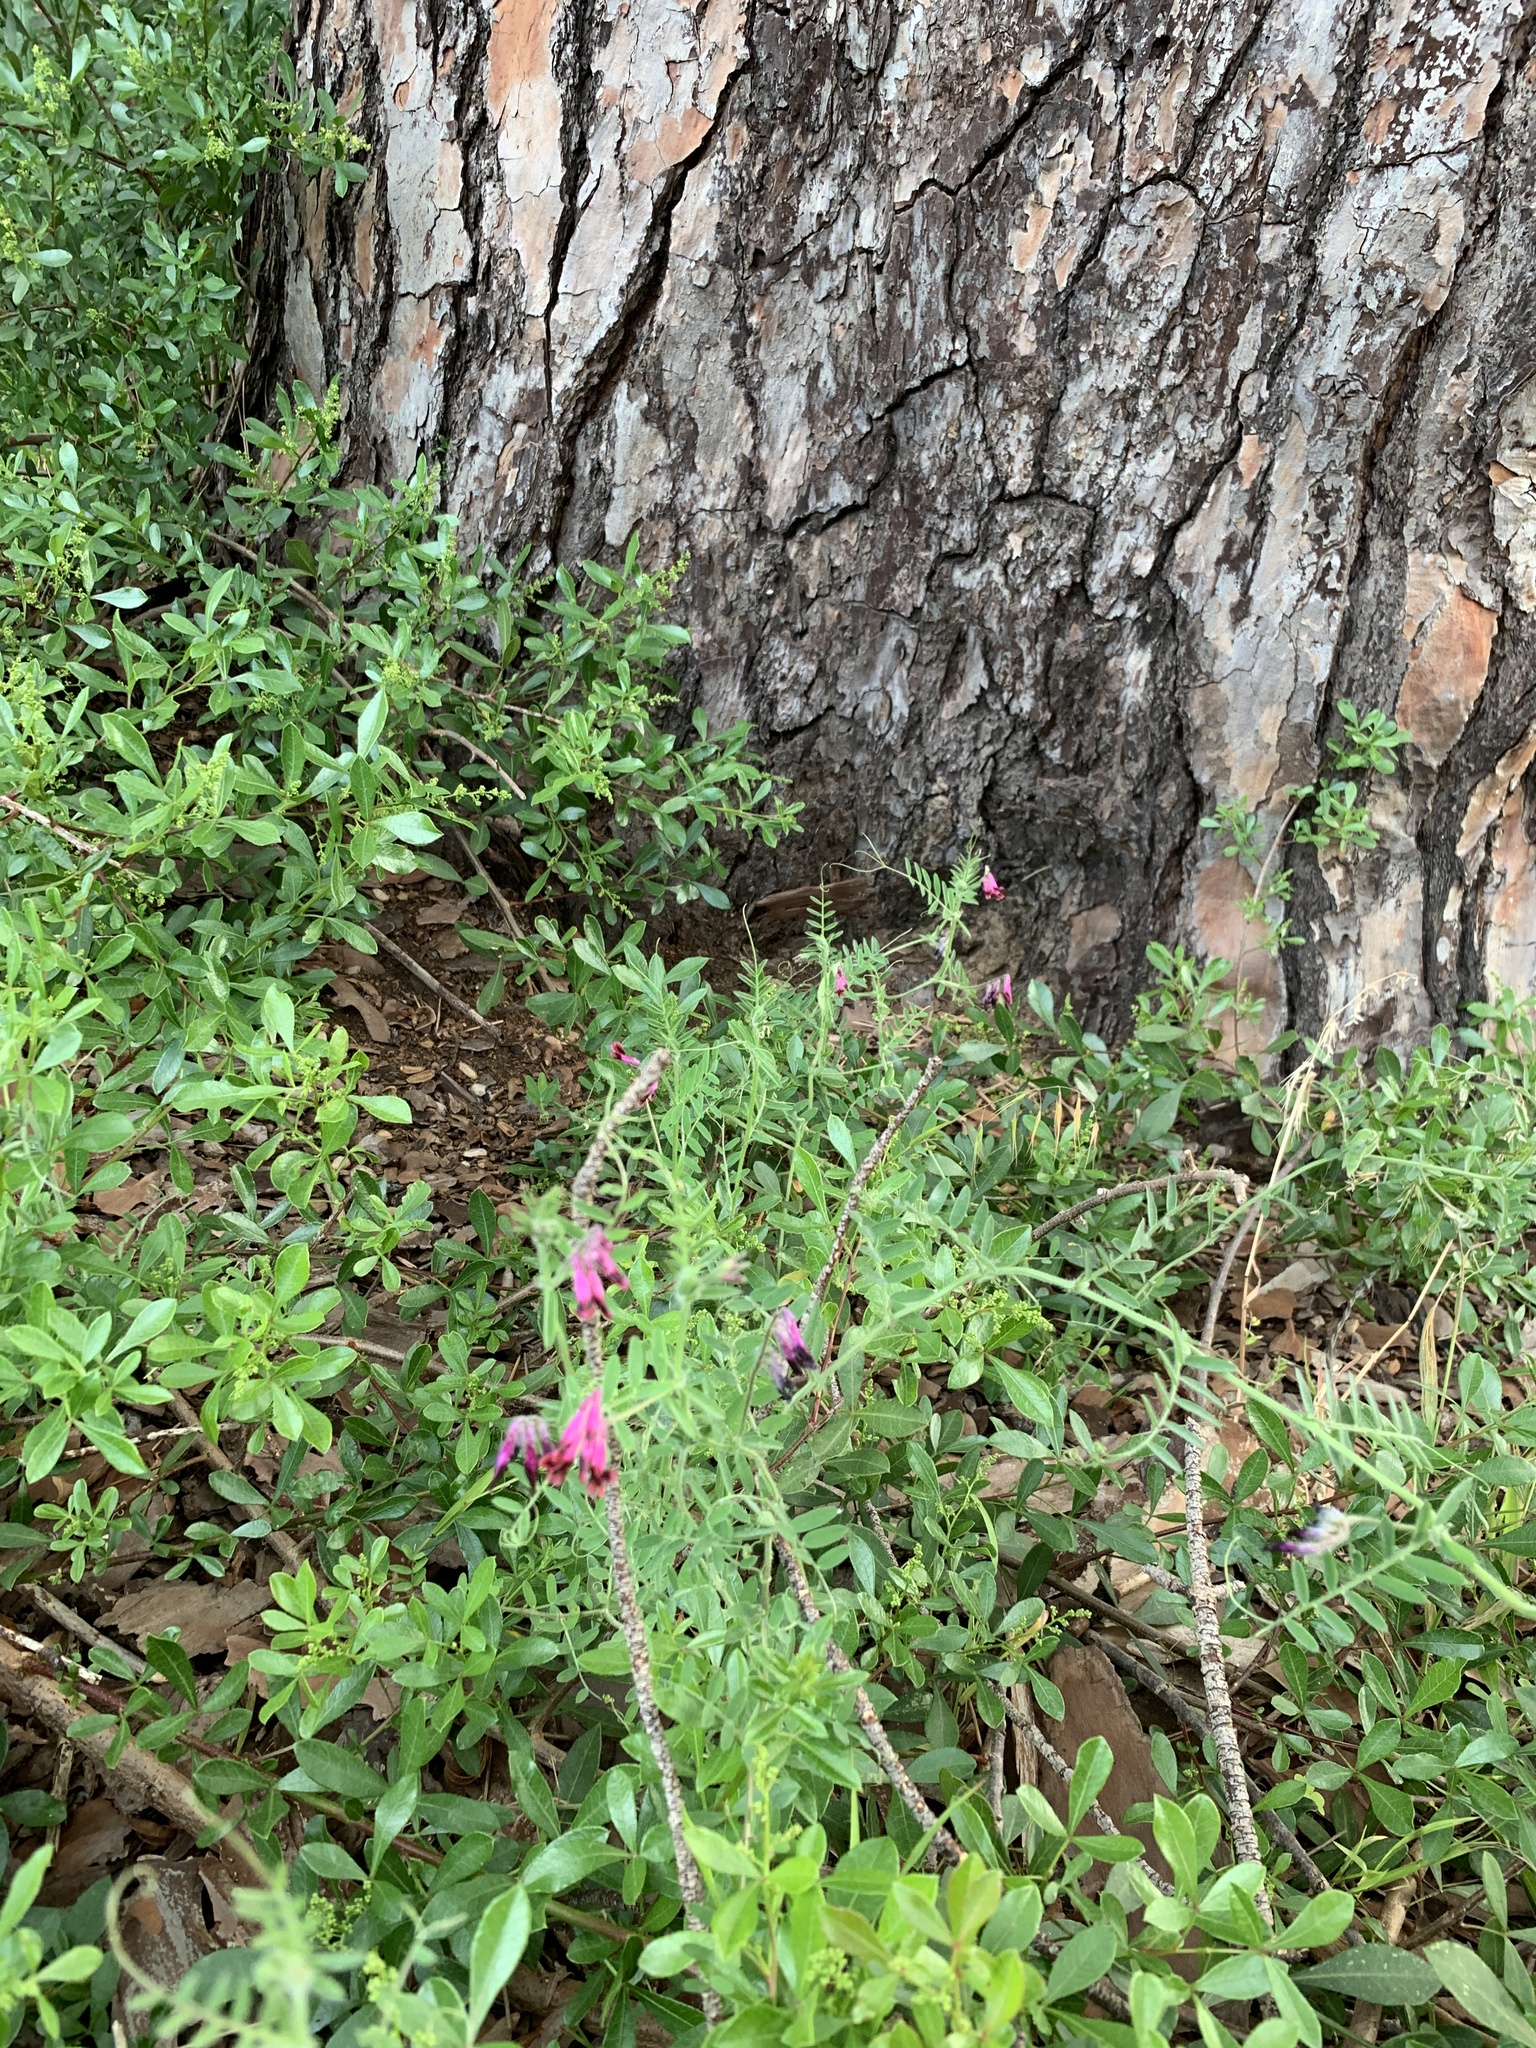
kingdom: Plantae
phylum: Tracheophyta
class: Magnoliopsida
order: Fabales
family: Fabaceae
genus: Vicia
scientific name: Vicia benghalensis
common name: Purple vetch
